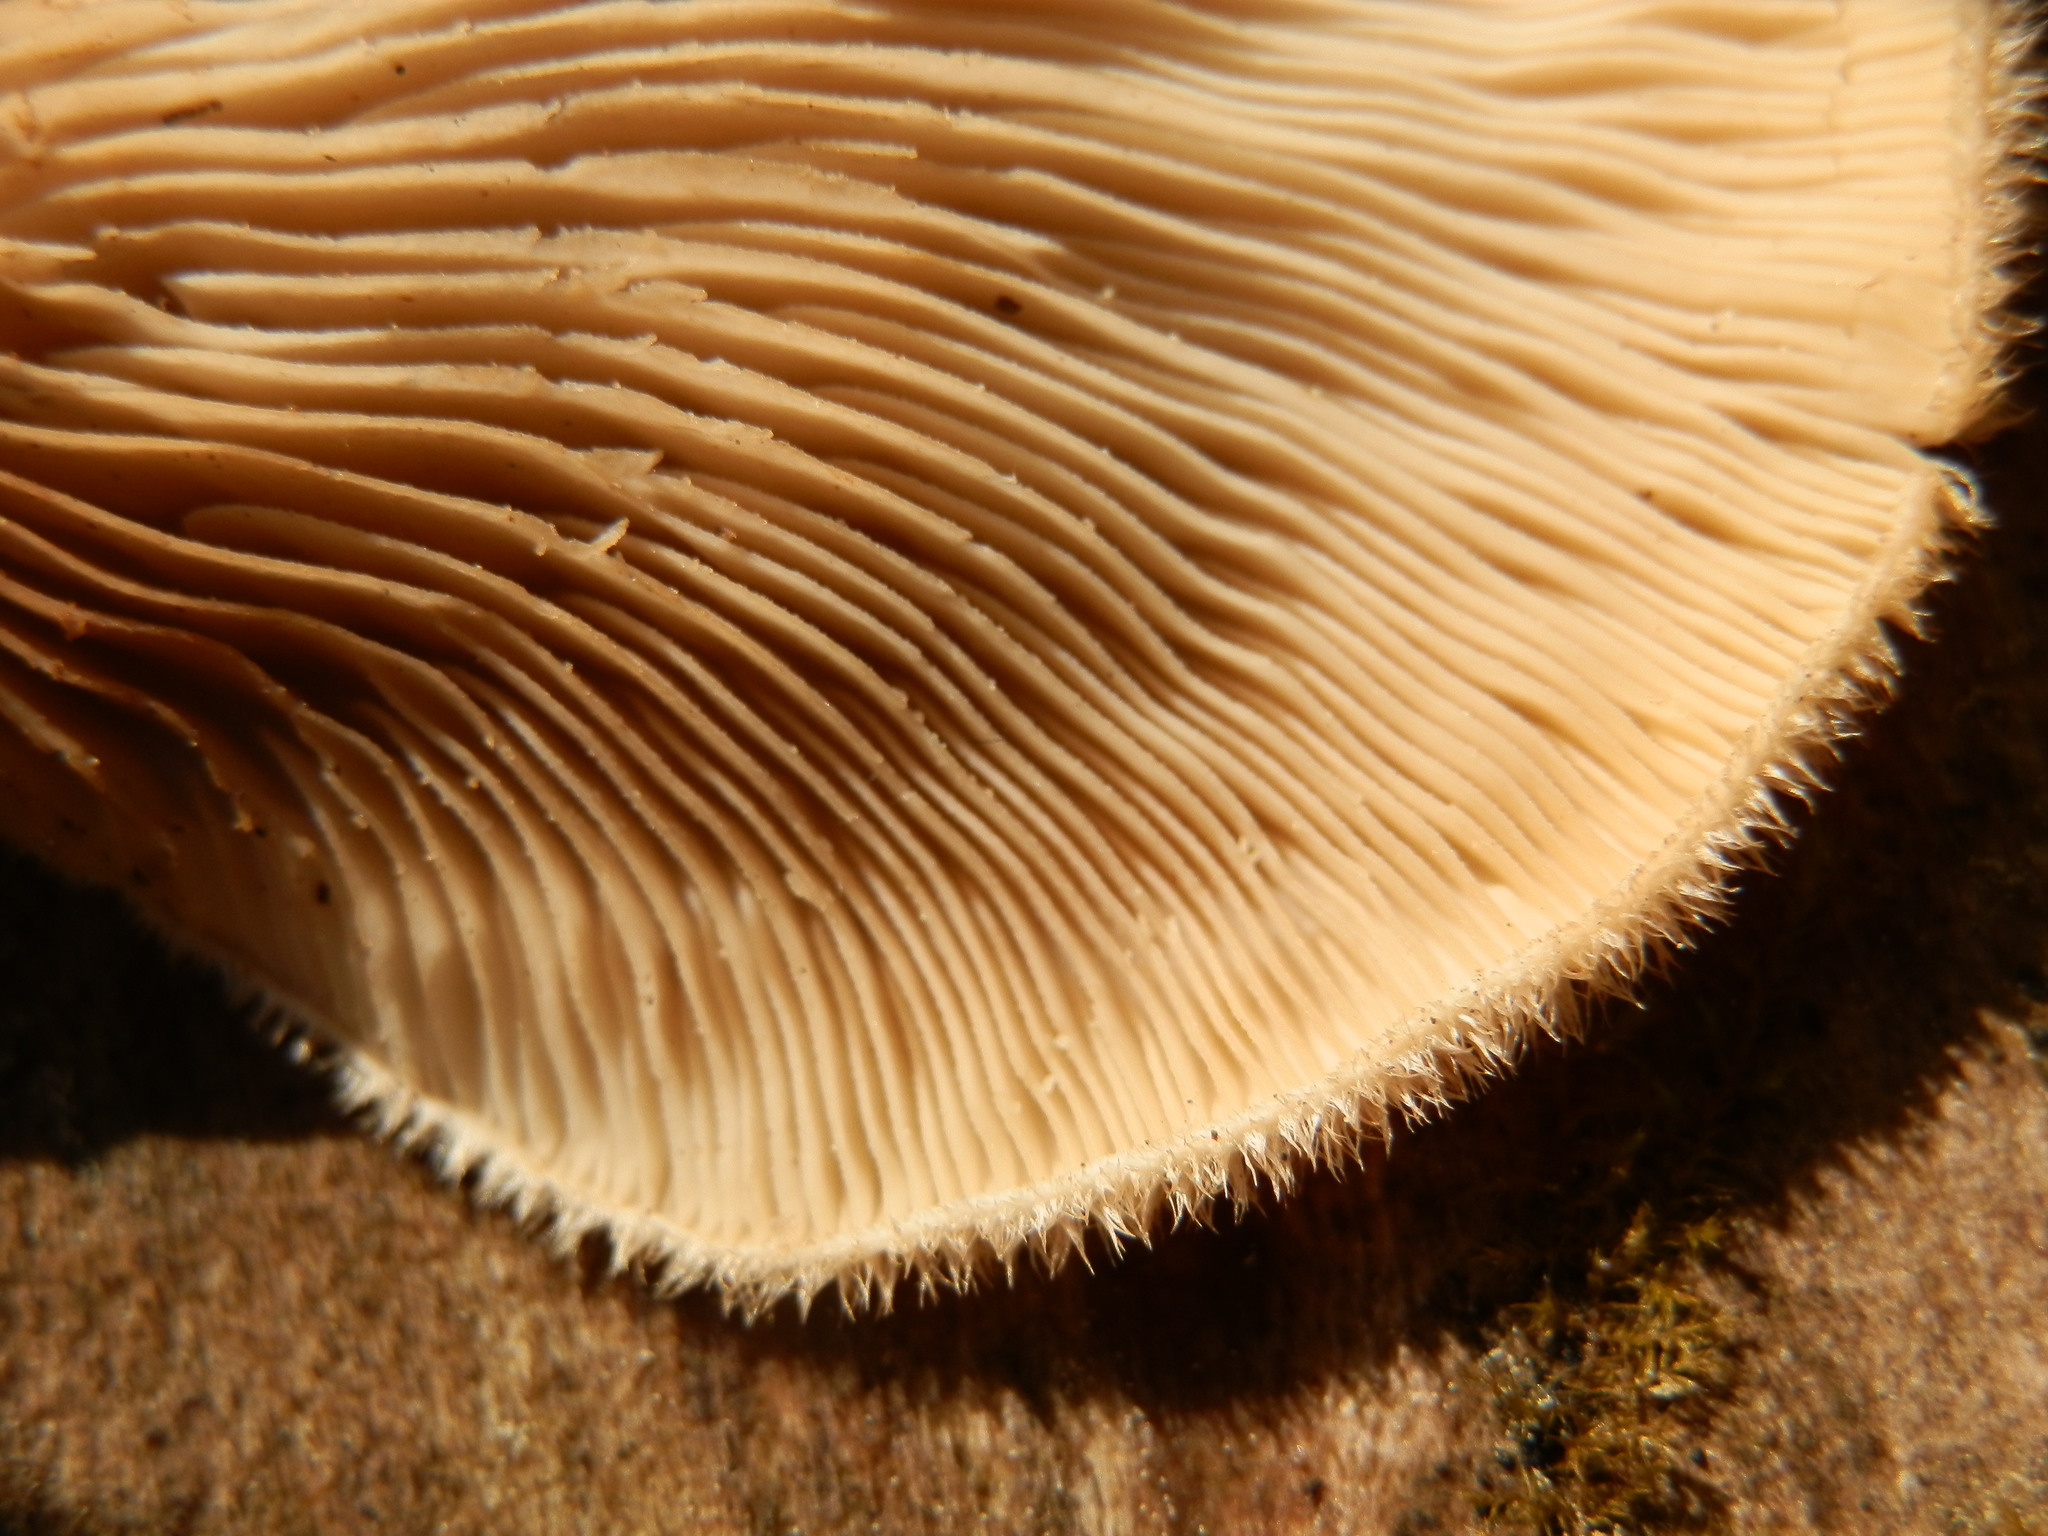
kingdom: Fungi
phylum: Basidiomycota
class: Agaricomycetes
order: Polyporales
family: Panaceae
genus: Panus
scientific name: Panus neostrigosus
